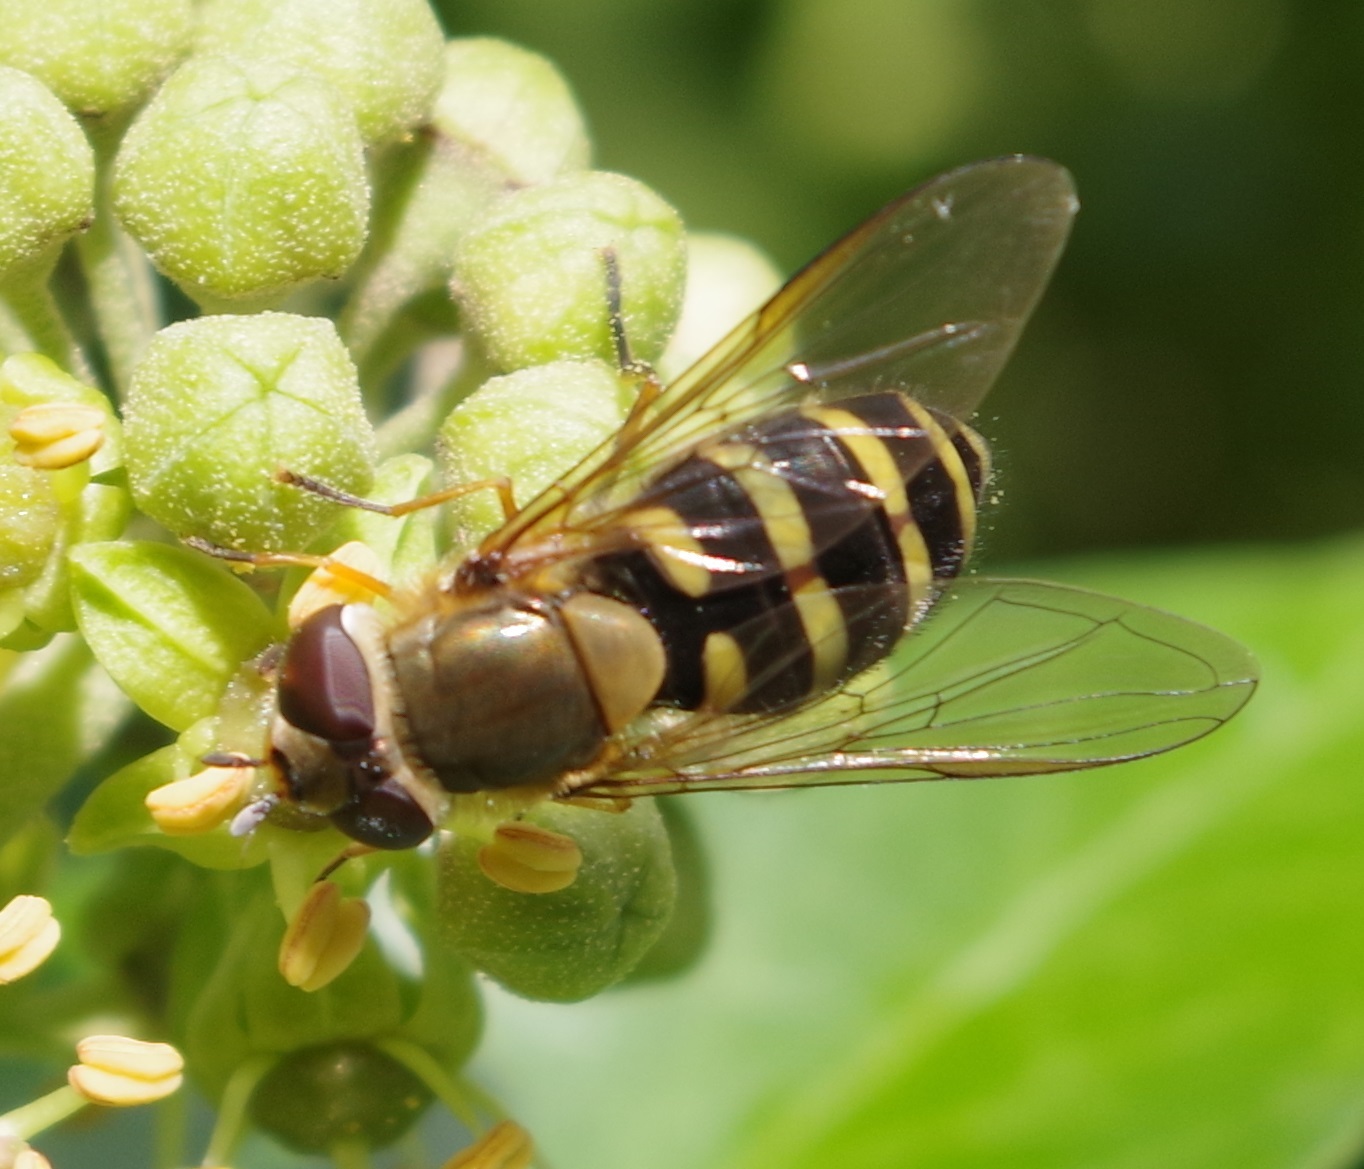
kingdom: Animalia
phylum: Arthropoda
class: Insecta
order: Diptera
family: Syrphidae
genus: Syrphus
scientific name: Syrphus torvus
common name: Hairy-eyed flower fly
